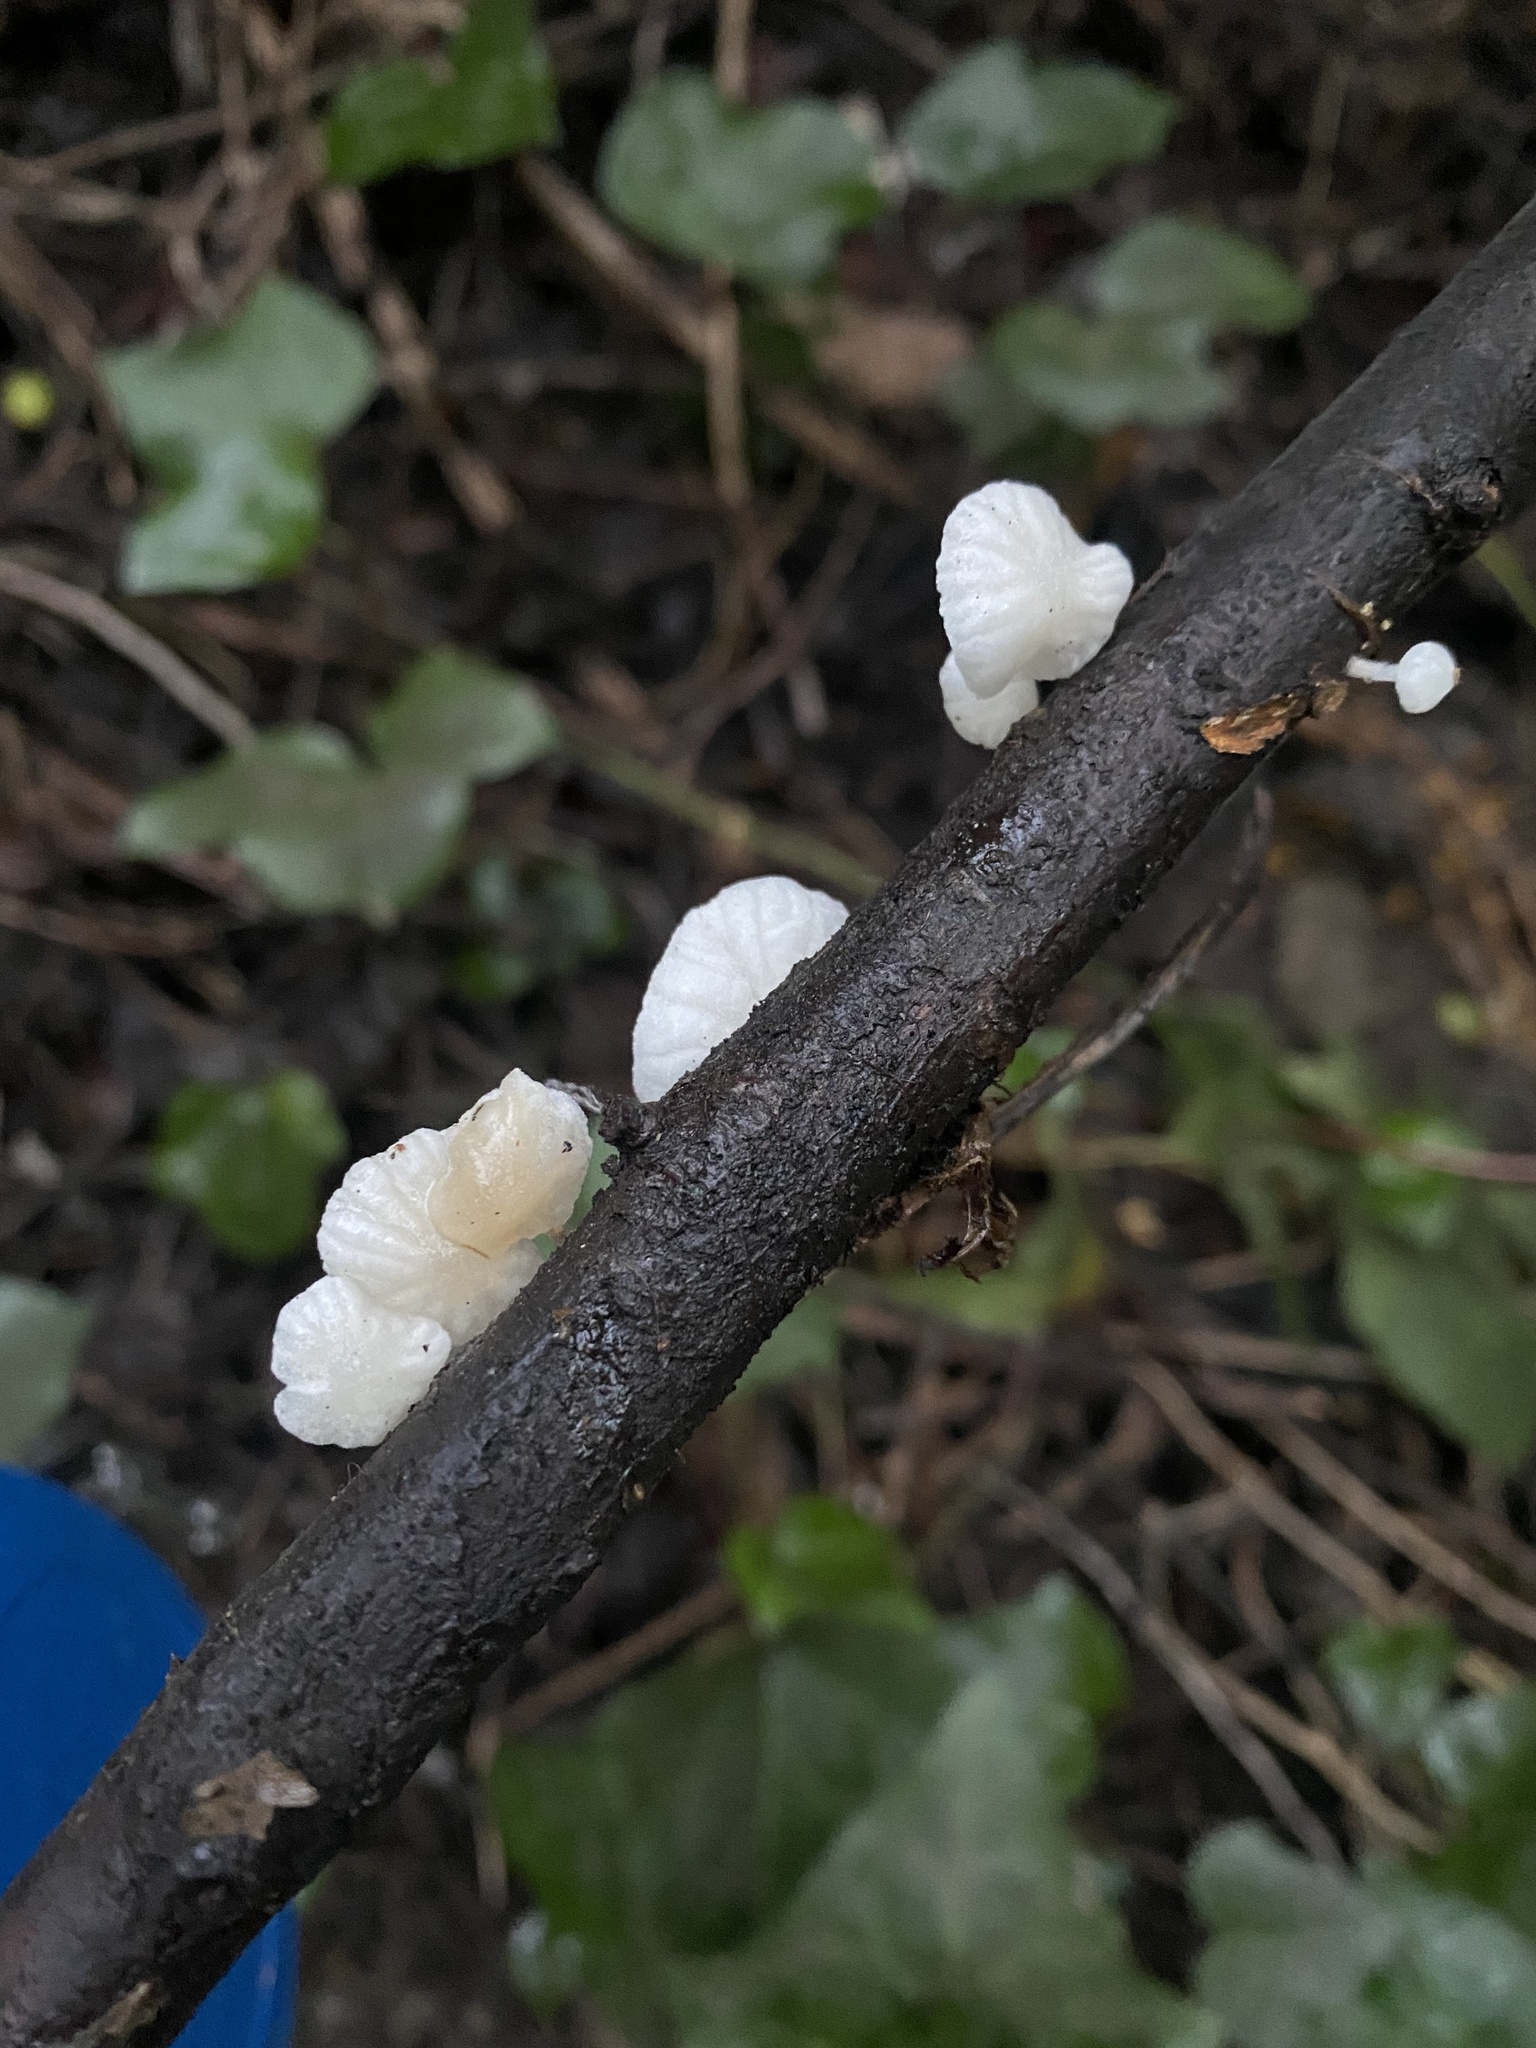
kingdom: Fungi
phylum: Basidiomycota
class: Agaricomycetes
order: Agaricales
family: Omphalotaceae
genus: Marasmiellus
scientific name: Marasmiellus candidus
